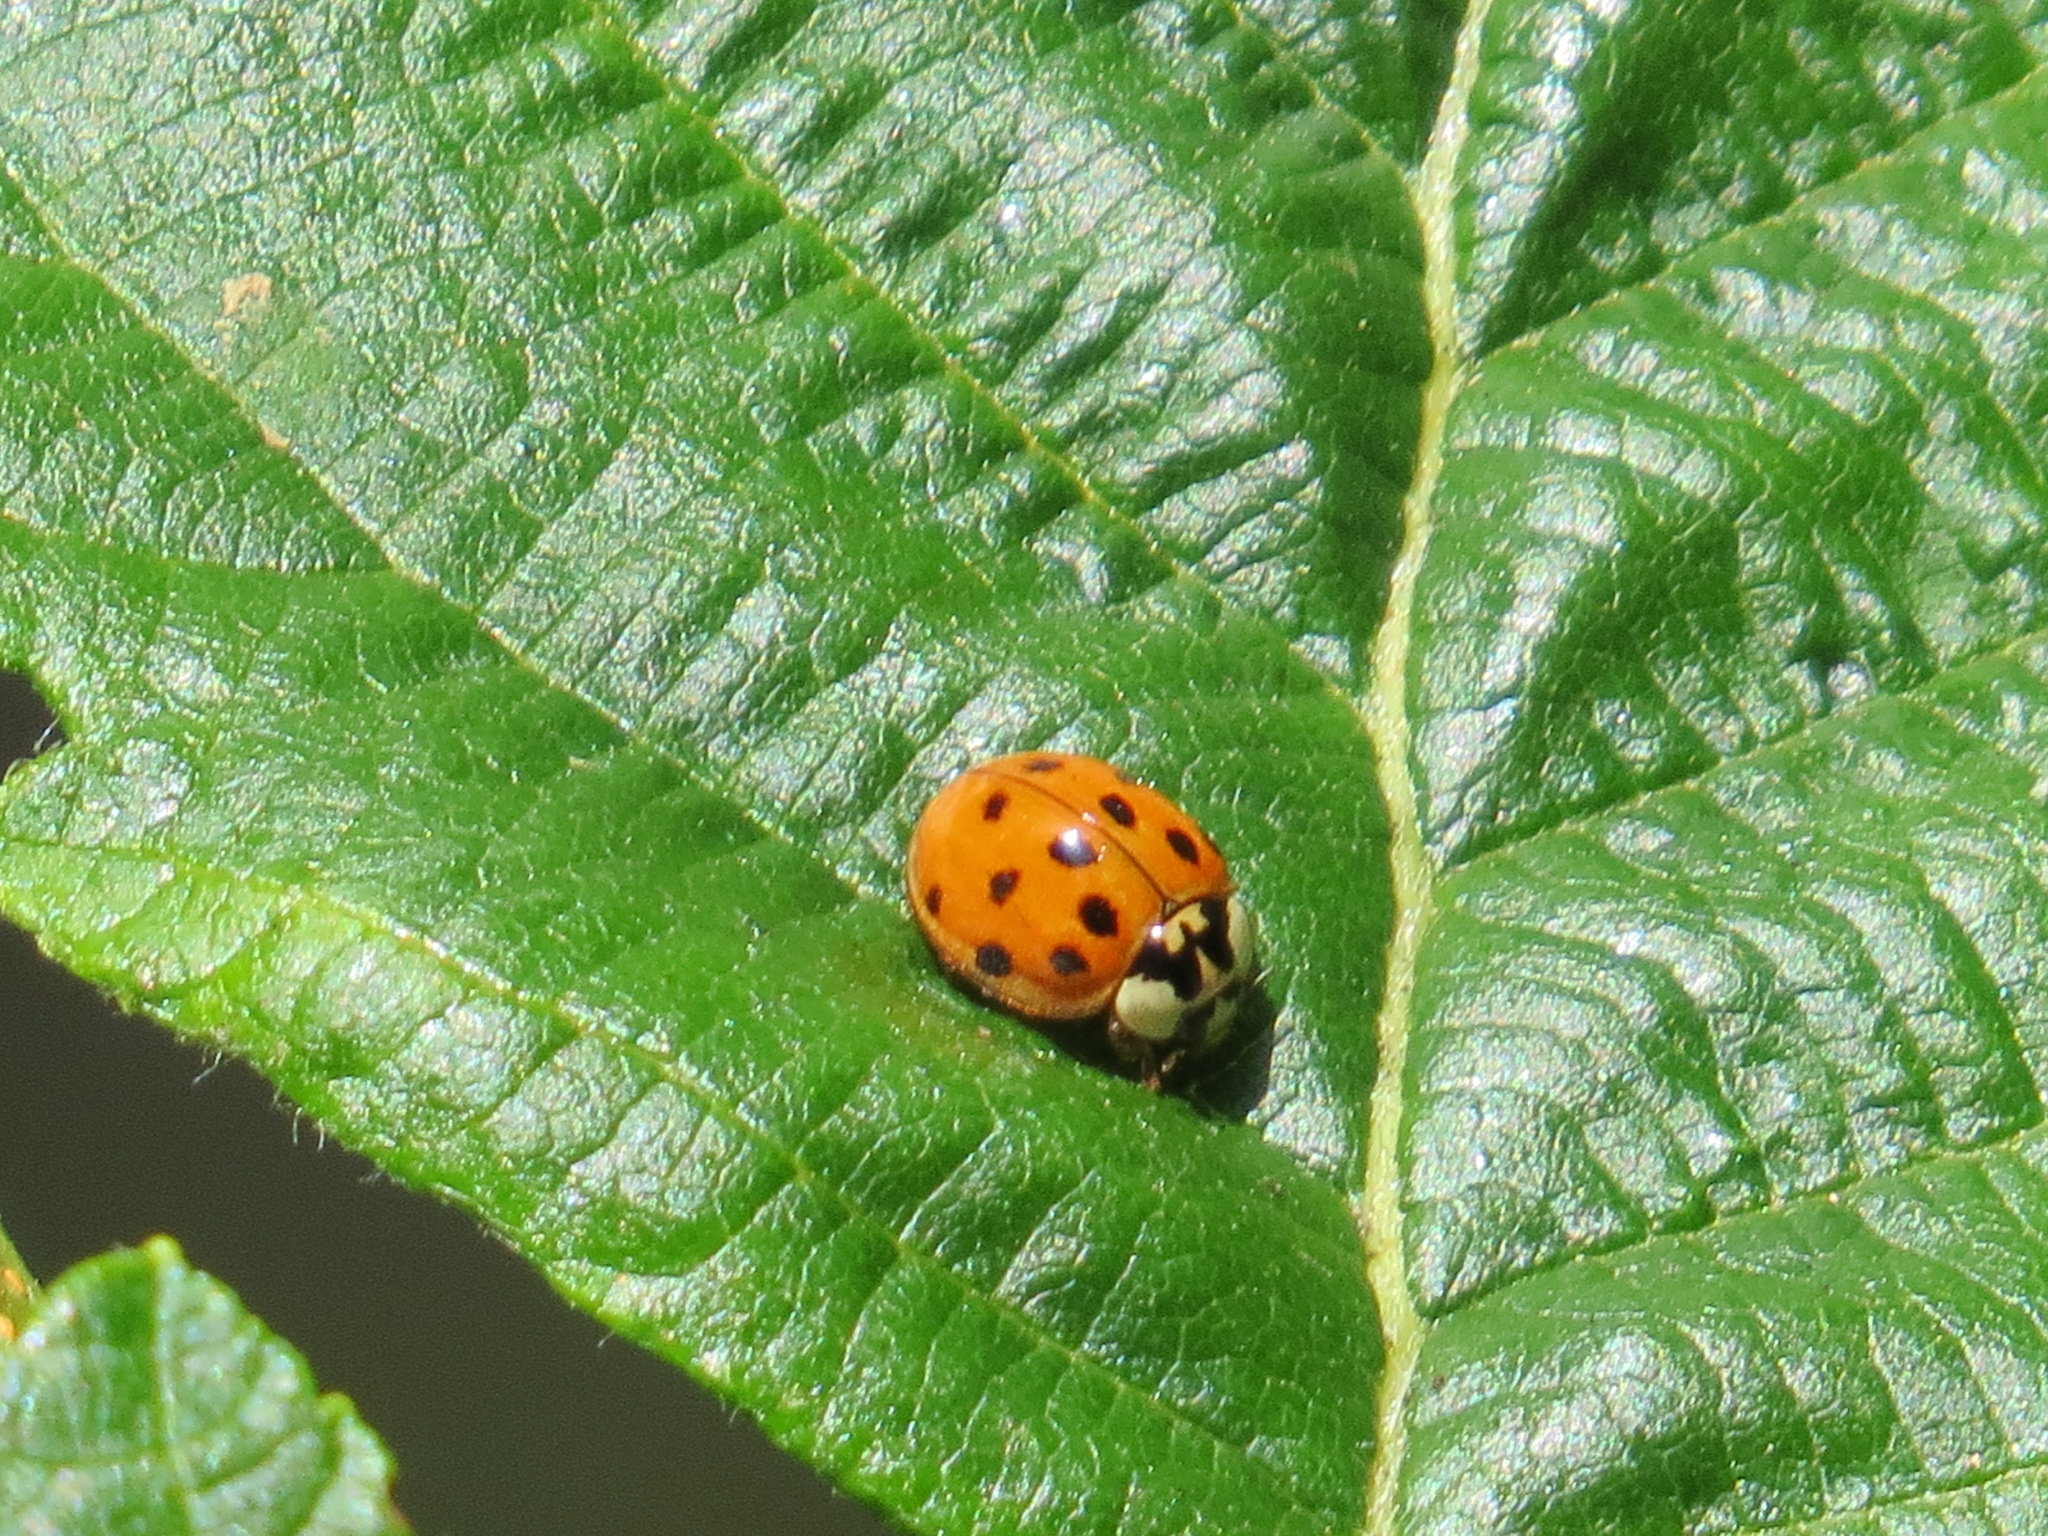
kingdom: Animalia
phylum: Arthropoda
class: Insecta
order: Coleoptera
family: Coccinellidae
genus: Harmonia
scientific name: Harmonia axyridis
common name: Harlequin ladybird
